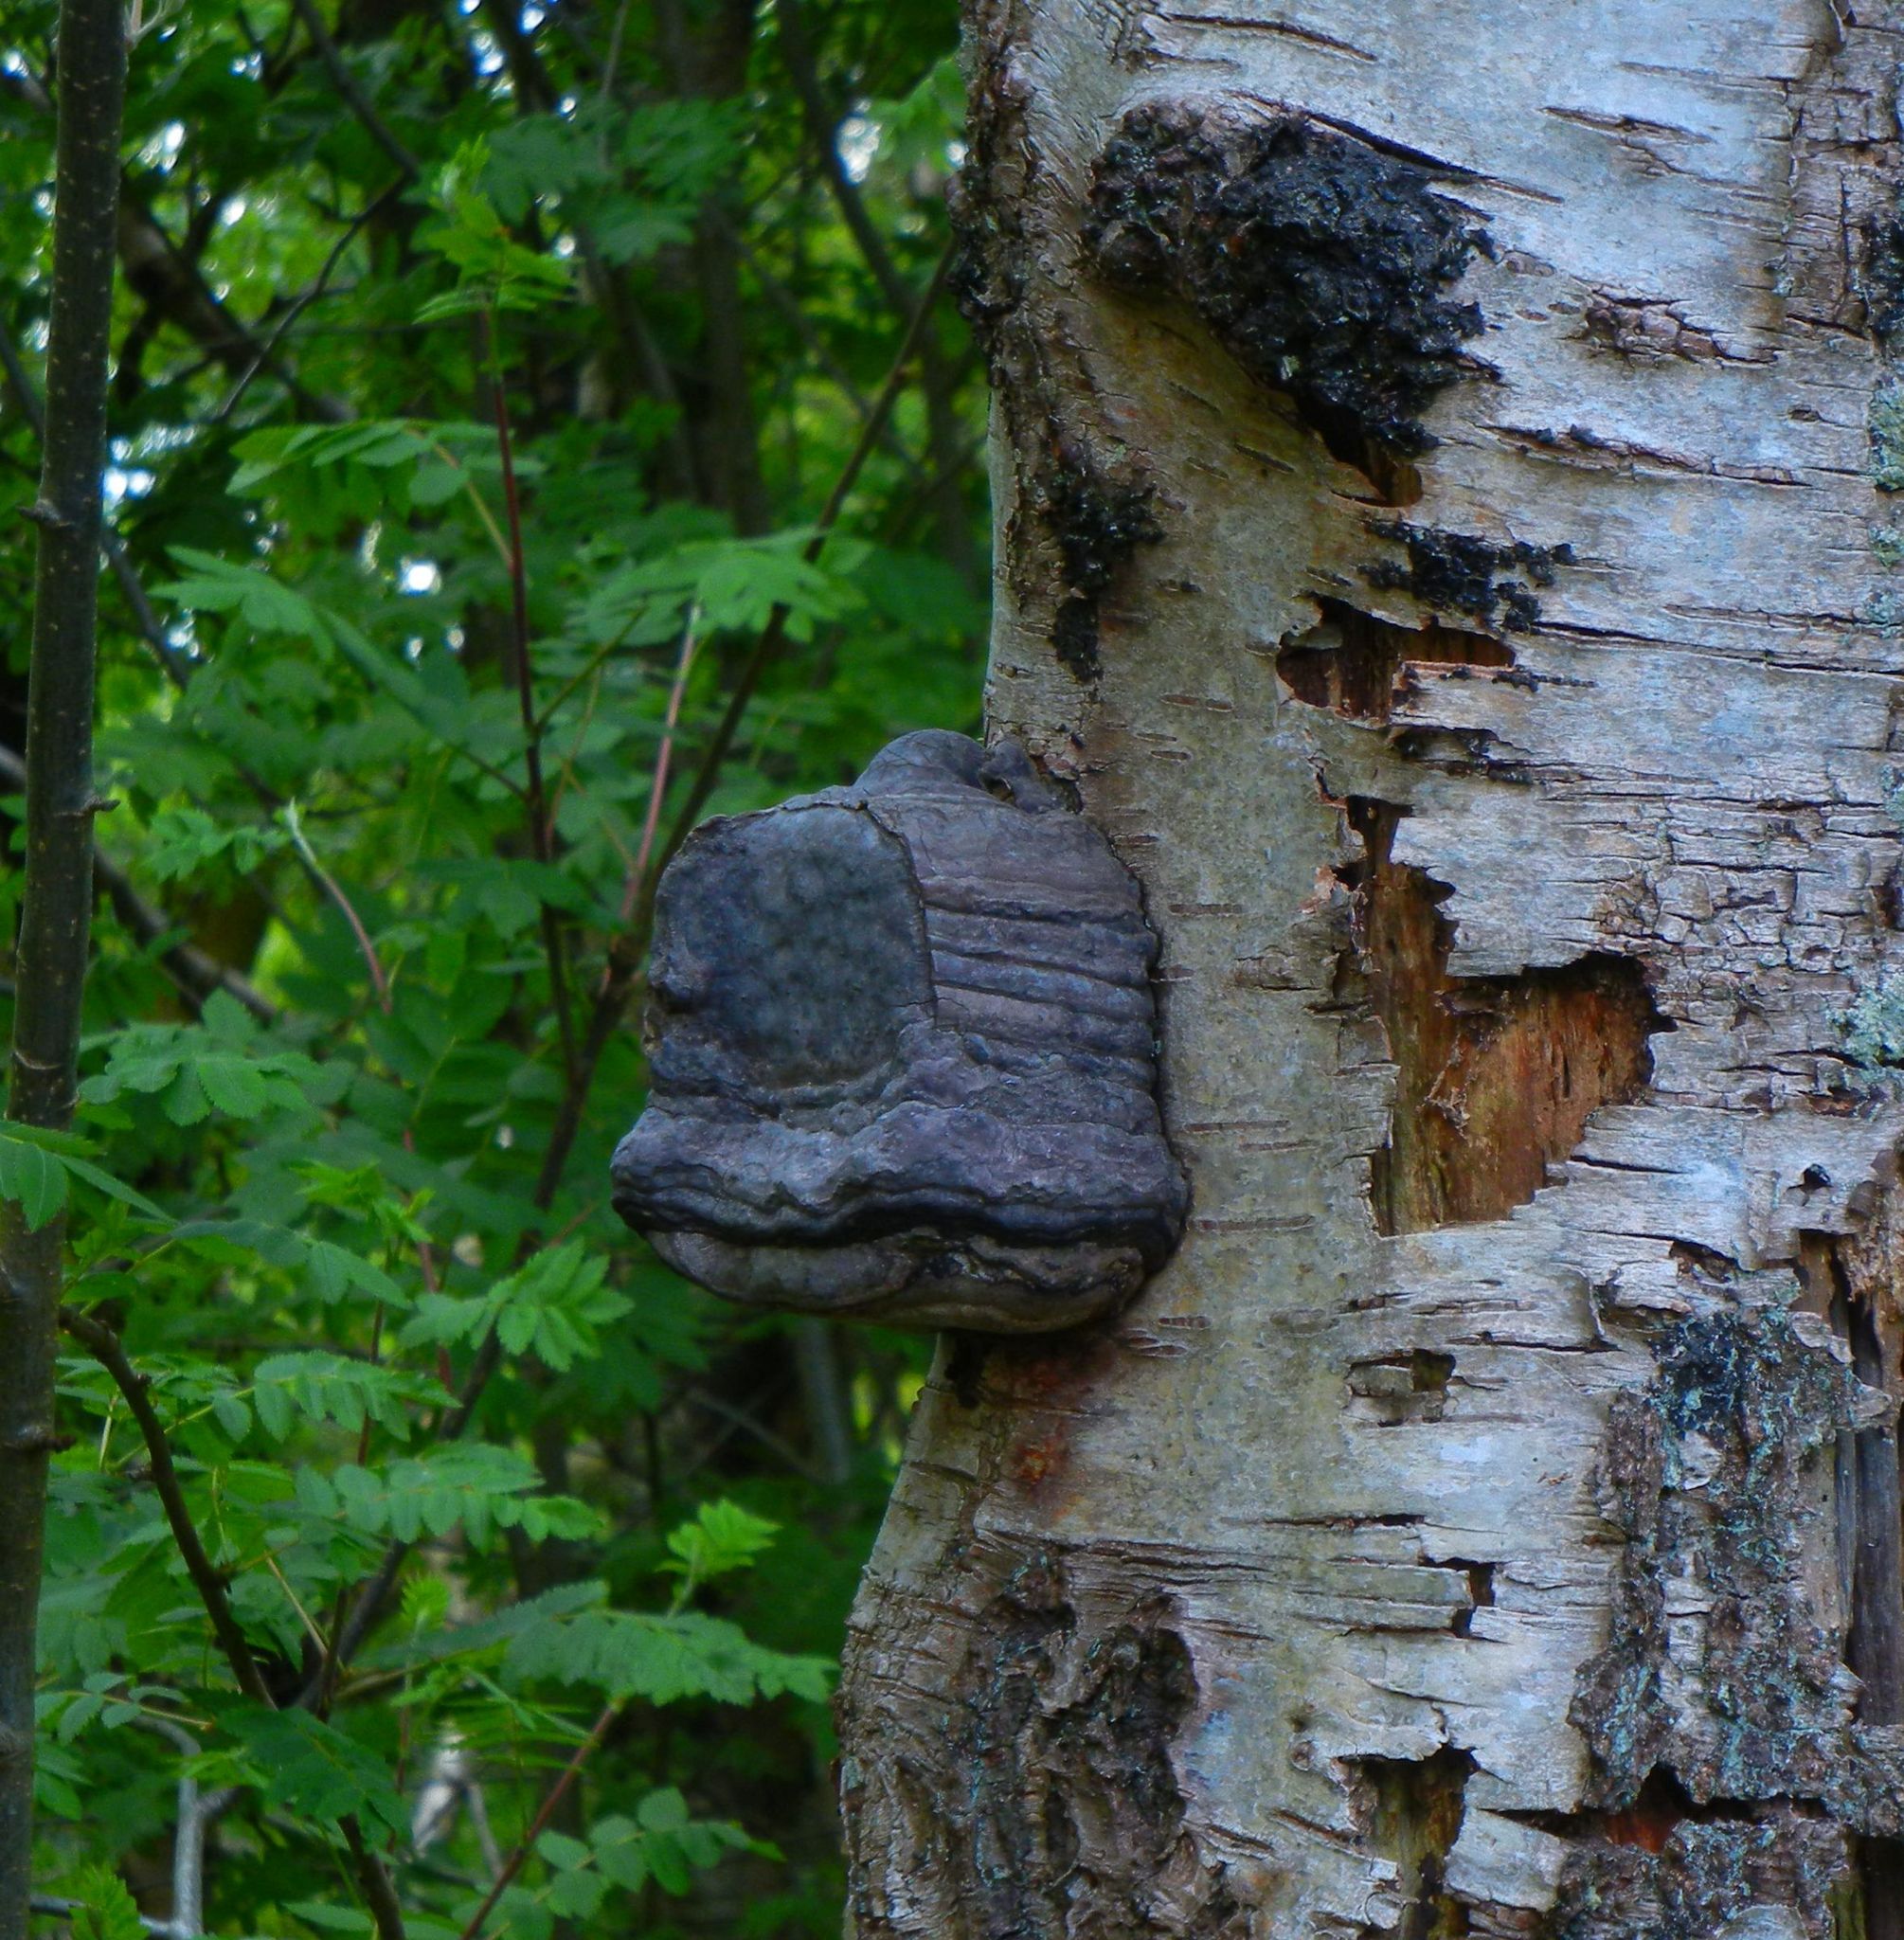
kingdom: Fungi
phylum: Basidiomycota
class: Agaricomycetes
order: Polyporales
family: Polyporaceae
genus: Fomes
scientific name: Fomes fomentarius
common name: Hoof fungus
